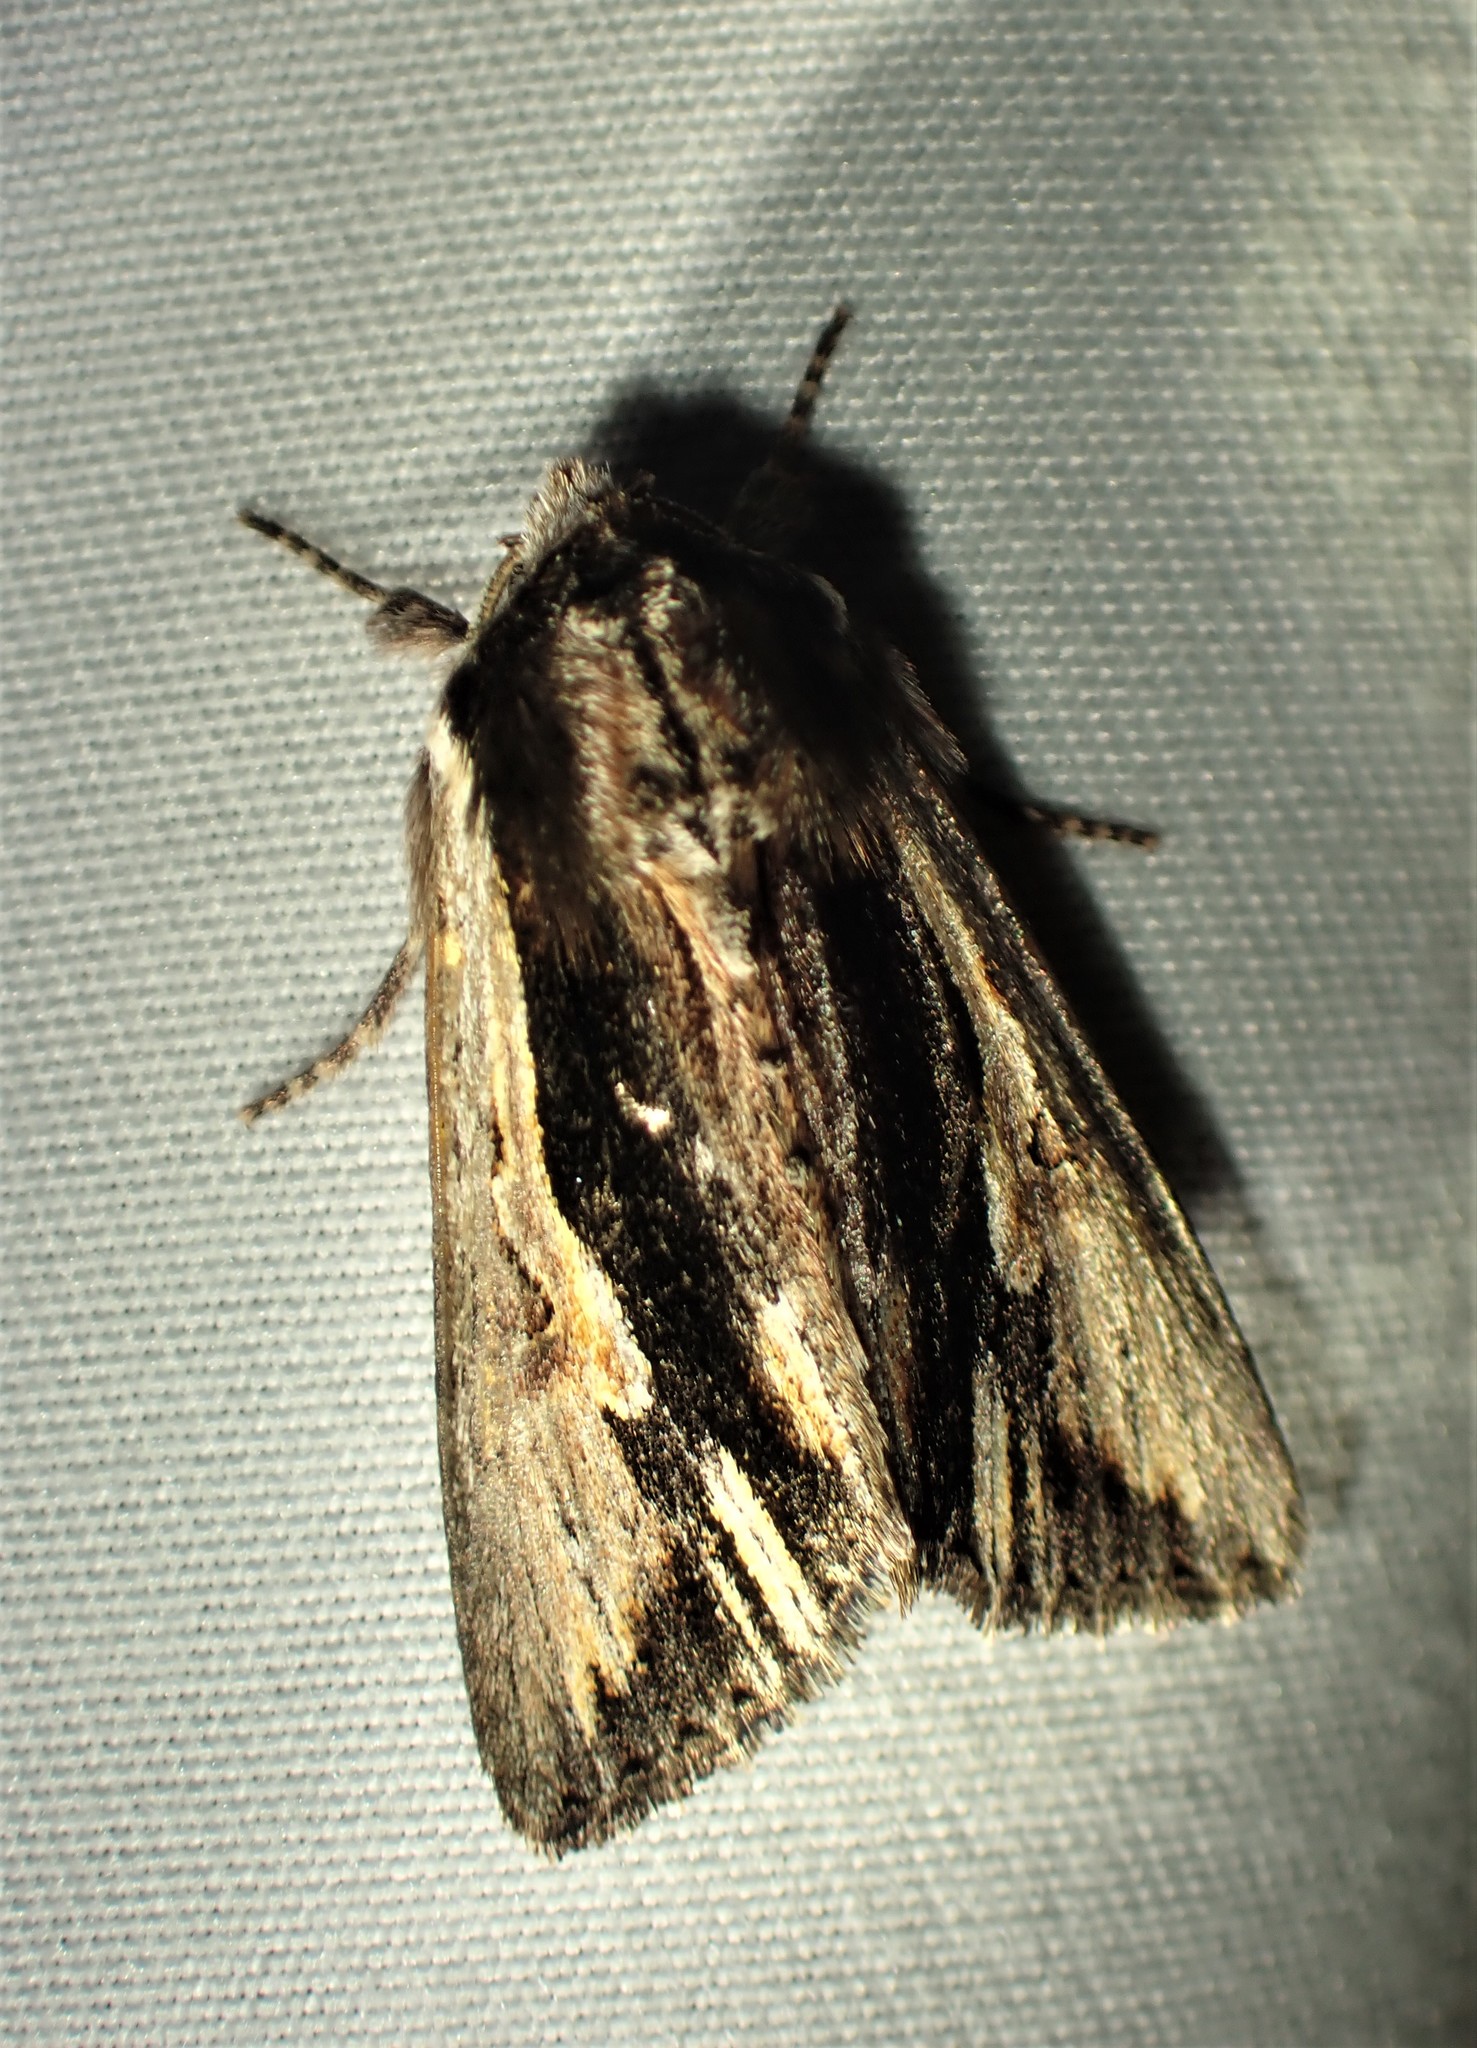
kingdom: Animalia
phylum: Arthropoda
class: Insecta
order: Lepidoptera
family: Noctuidae
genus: Achatia
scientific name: Achatia evicta
